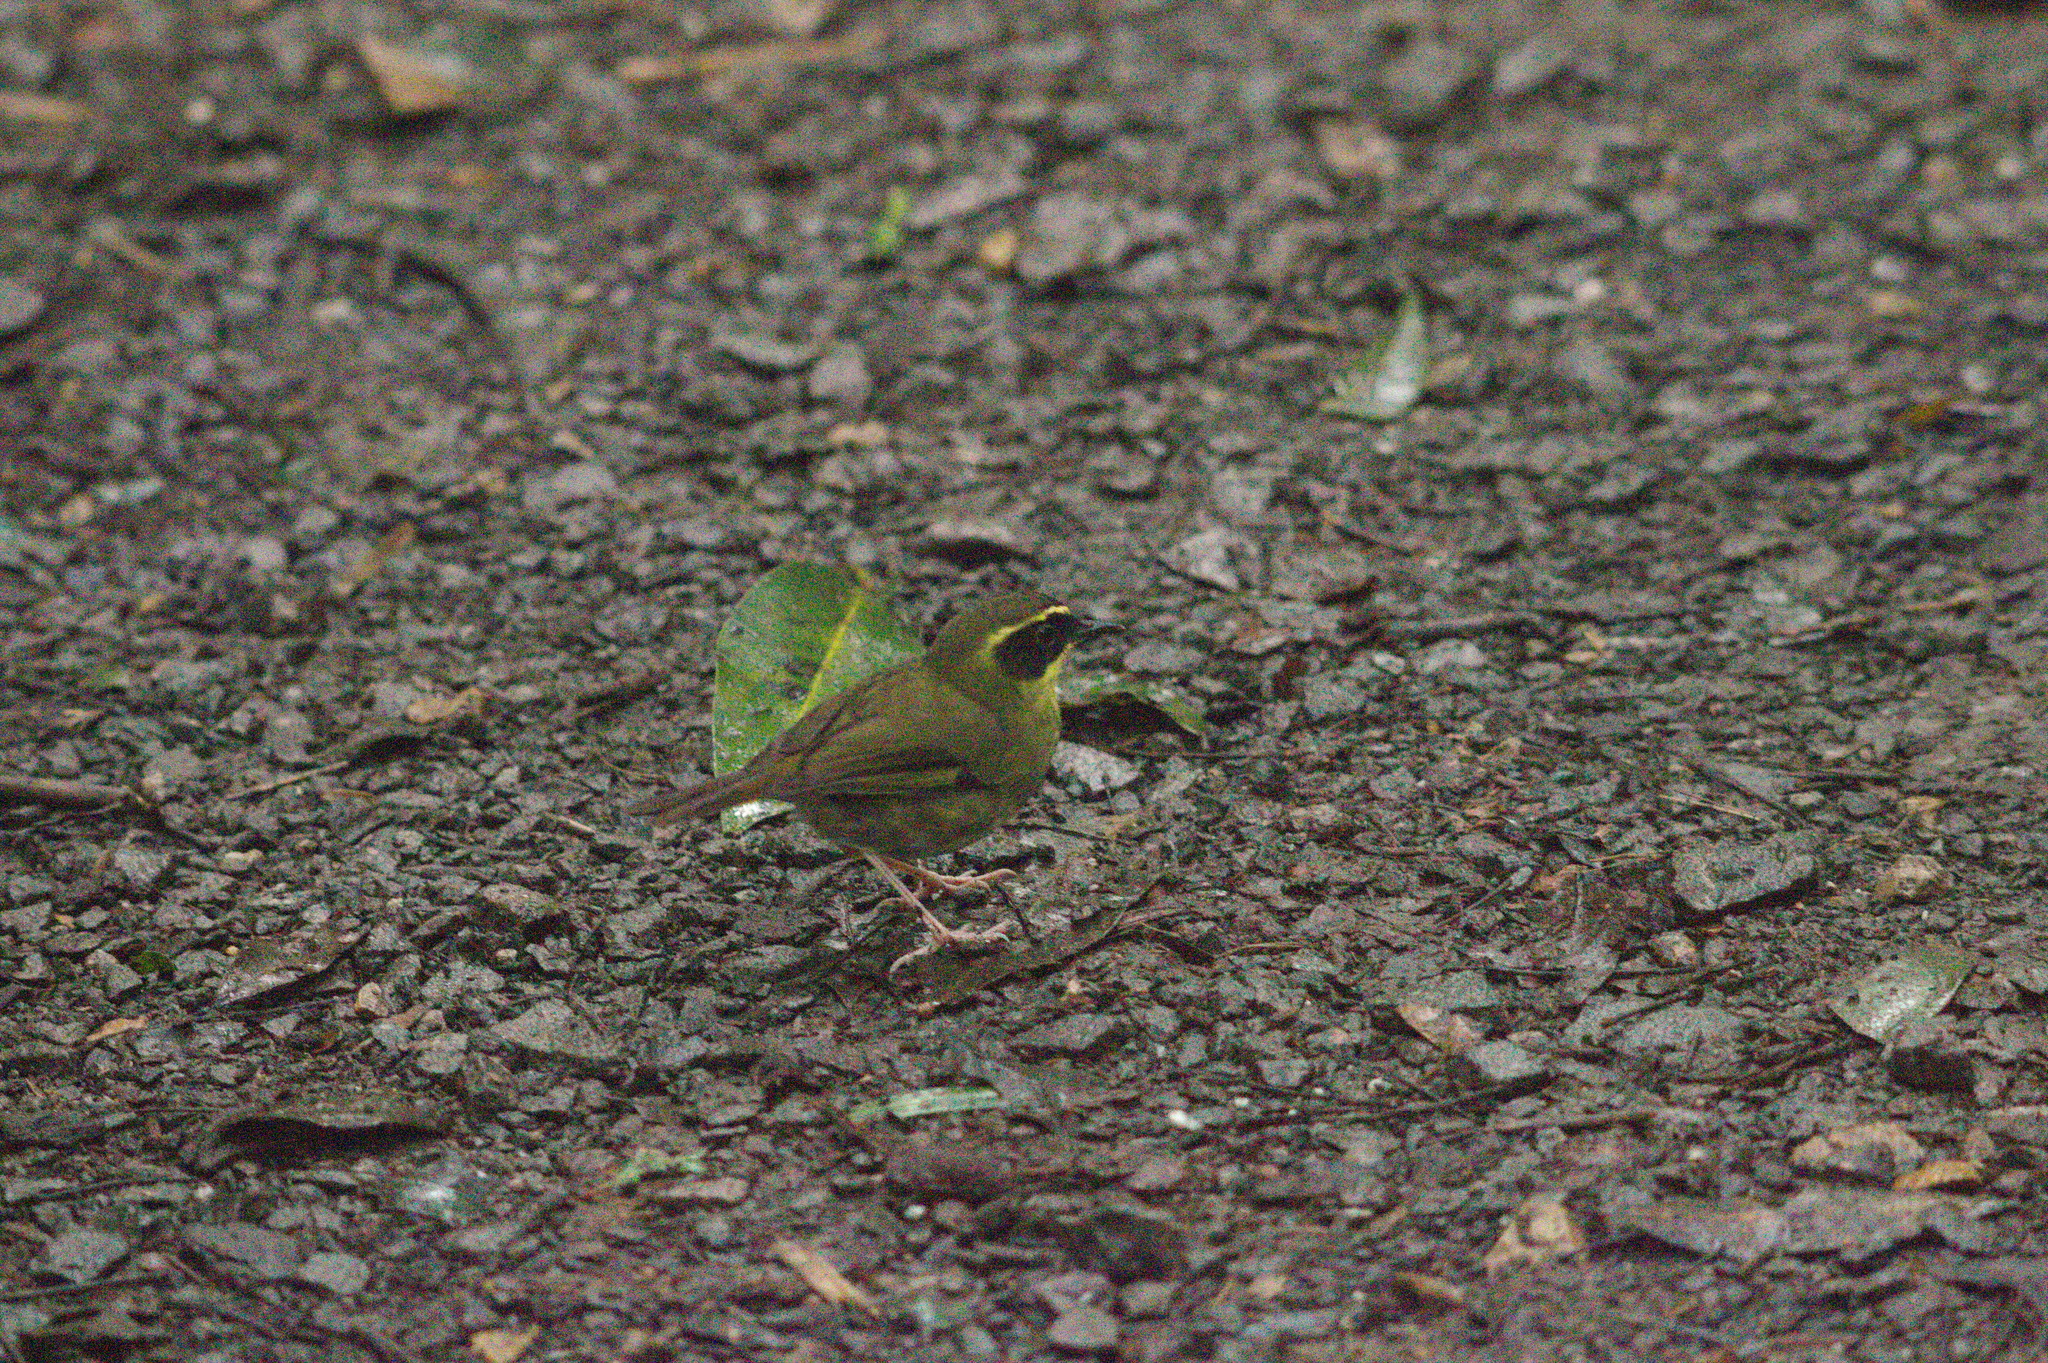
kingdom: Animalia
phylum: Chordata
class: Aves
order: Passeriformes
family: Acanthizidae
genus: Sericornis
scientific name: Sericornis citreogularis
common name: Yellow-throated scrubwren
